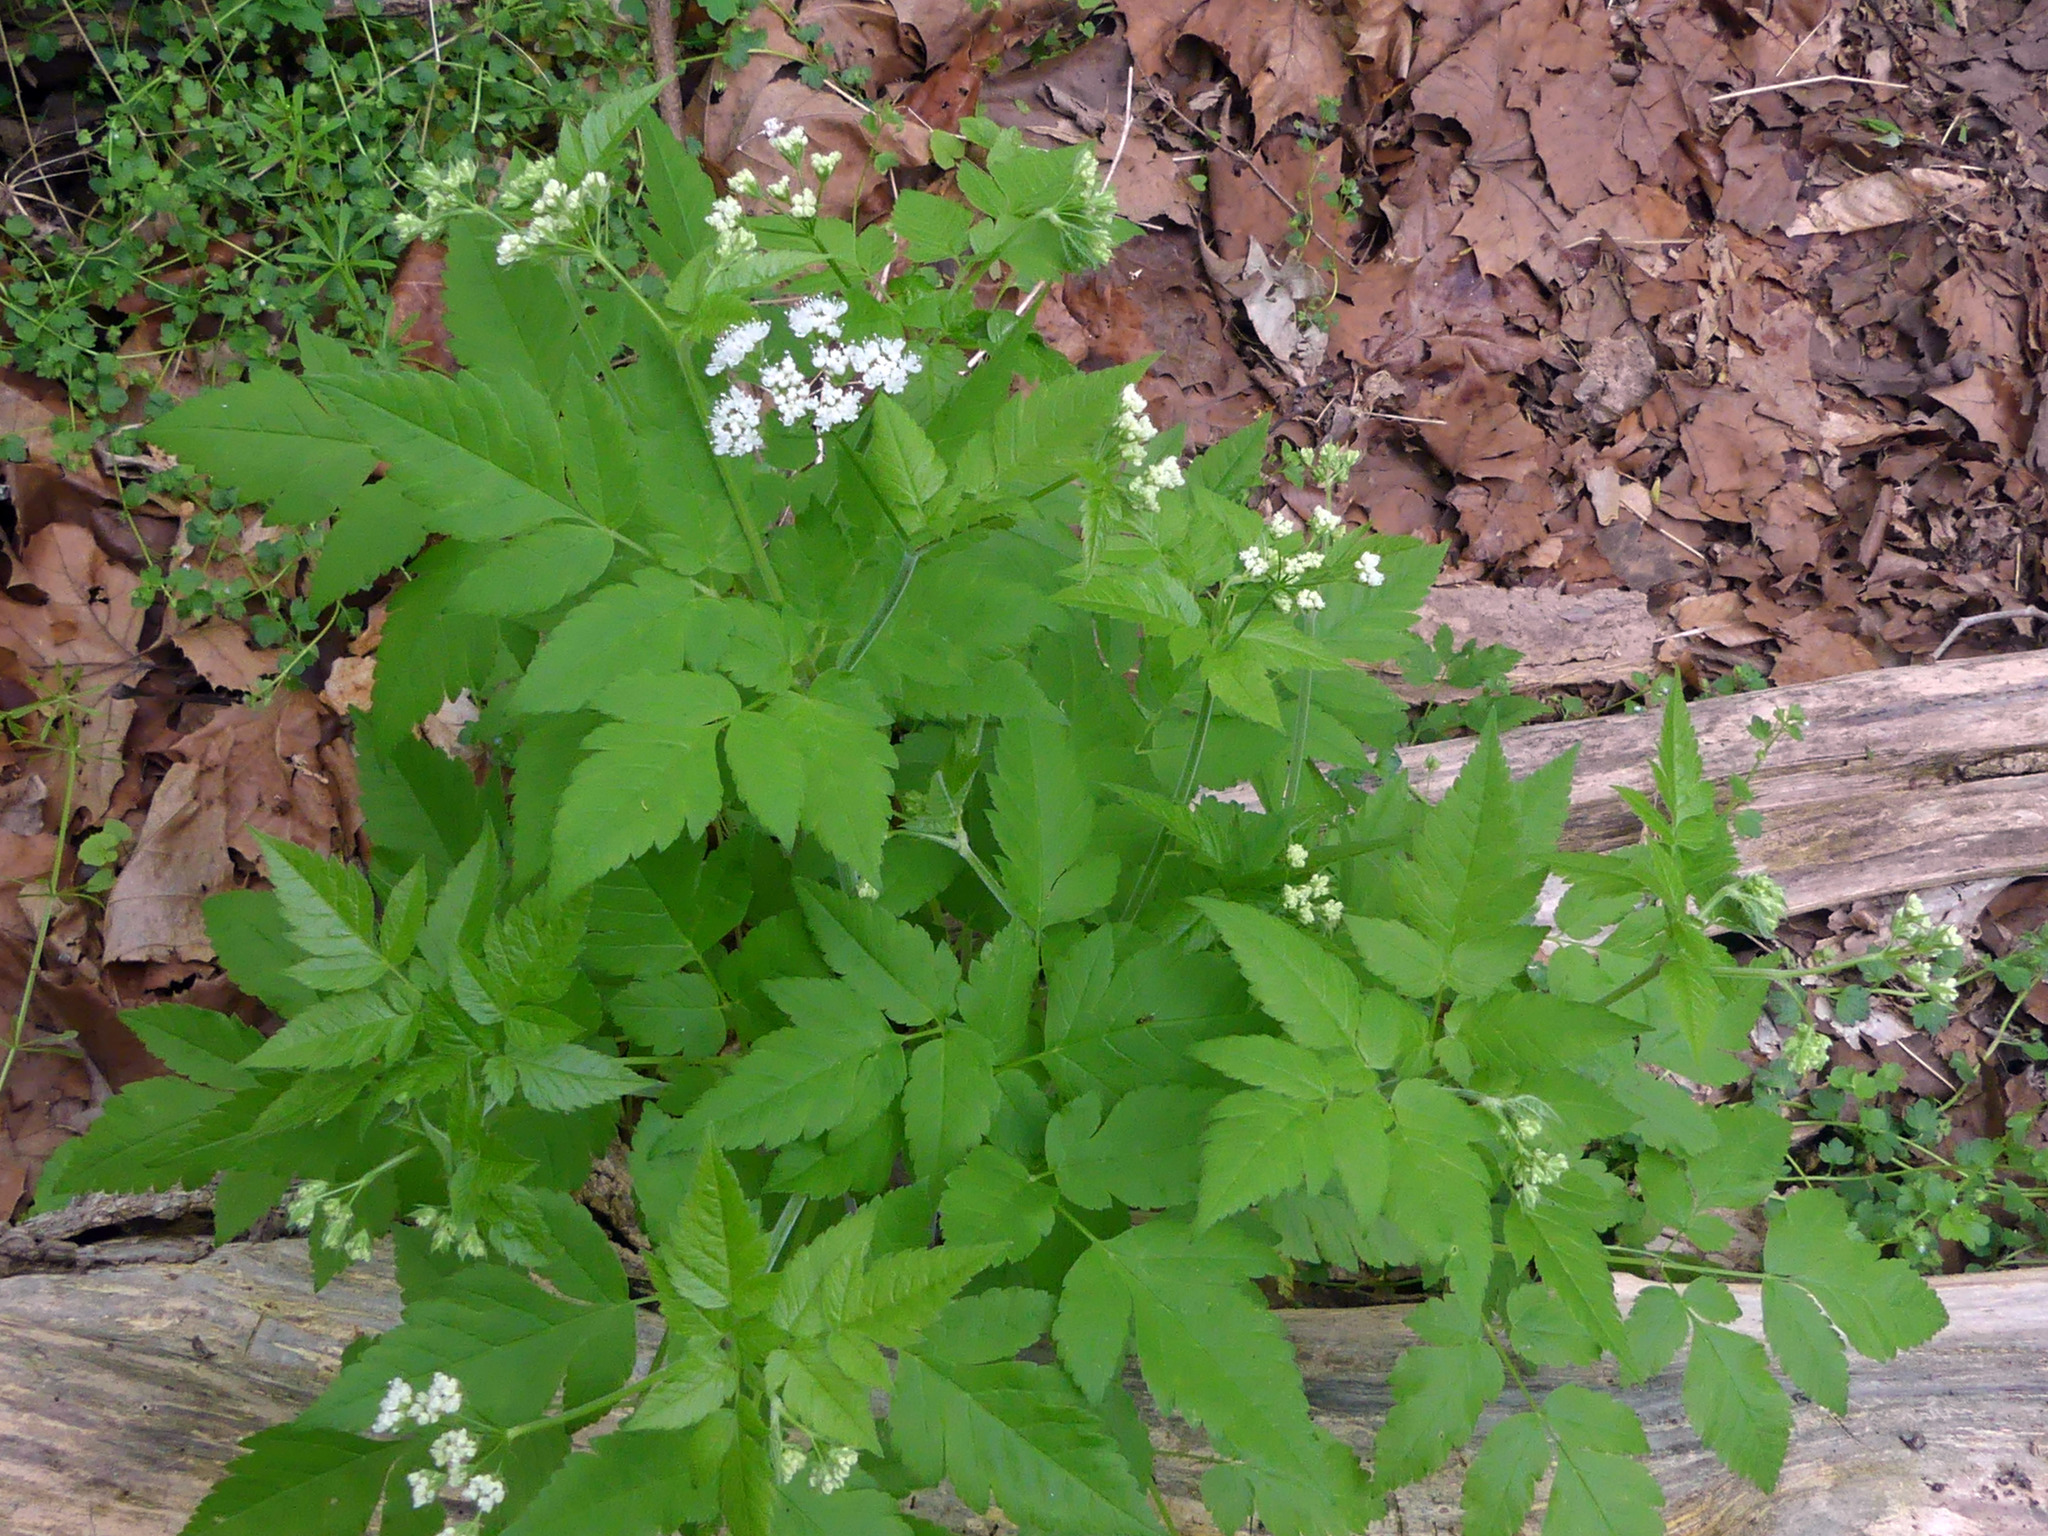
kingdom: Plantae
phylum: Tracheophyta
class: Magnoliopsida
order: Apiales
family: Apiaceae
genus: Osmorhiza
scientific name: Osmorhiza longistylis
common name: Smooth sweet cicely
